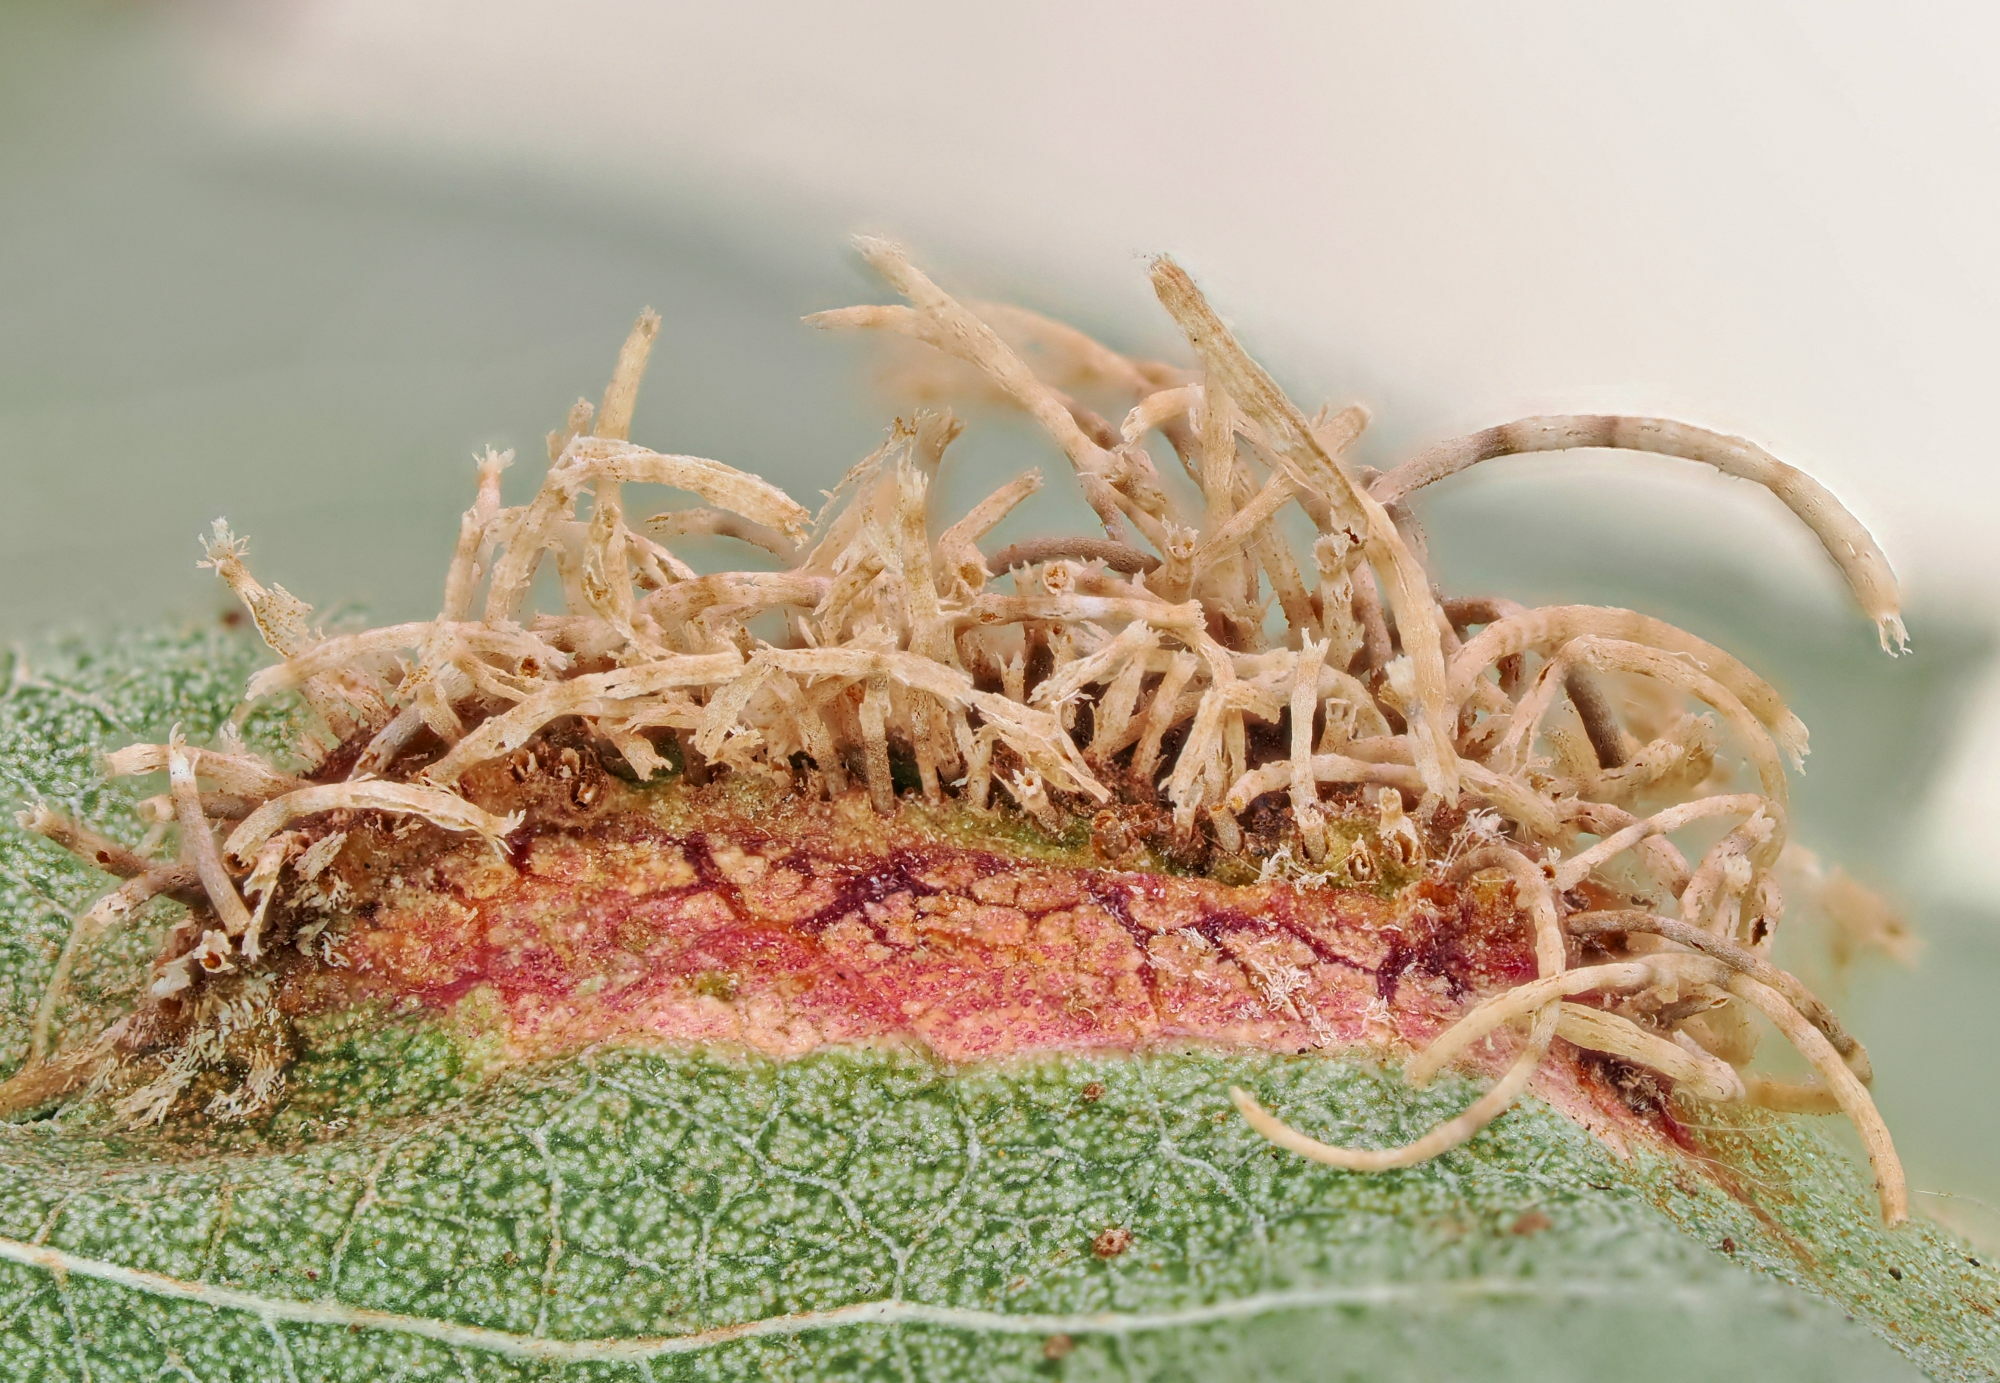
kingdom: Fungi
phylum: Basidiomycota
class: Pucciniomycetes
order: Pucciniales
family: Gymnosporangiaceae
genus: Gymnosporangium
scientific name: Gymnosporangium clavariiforme
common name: Tongues of fire
